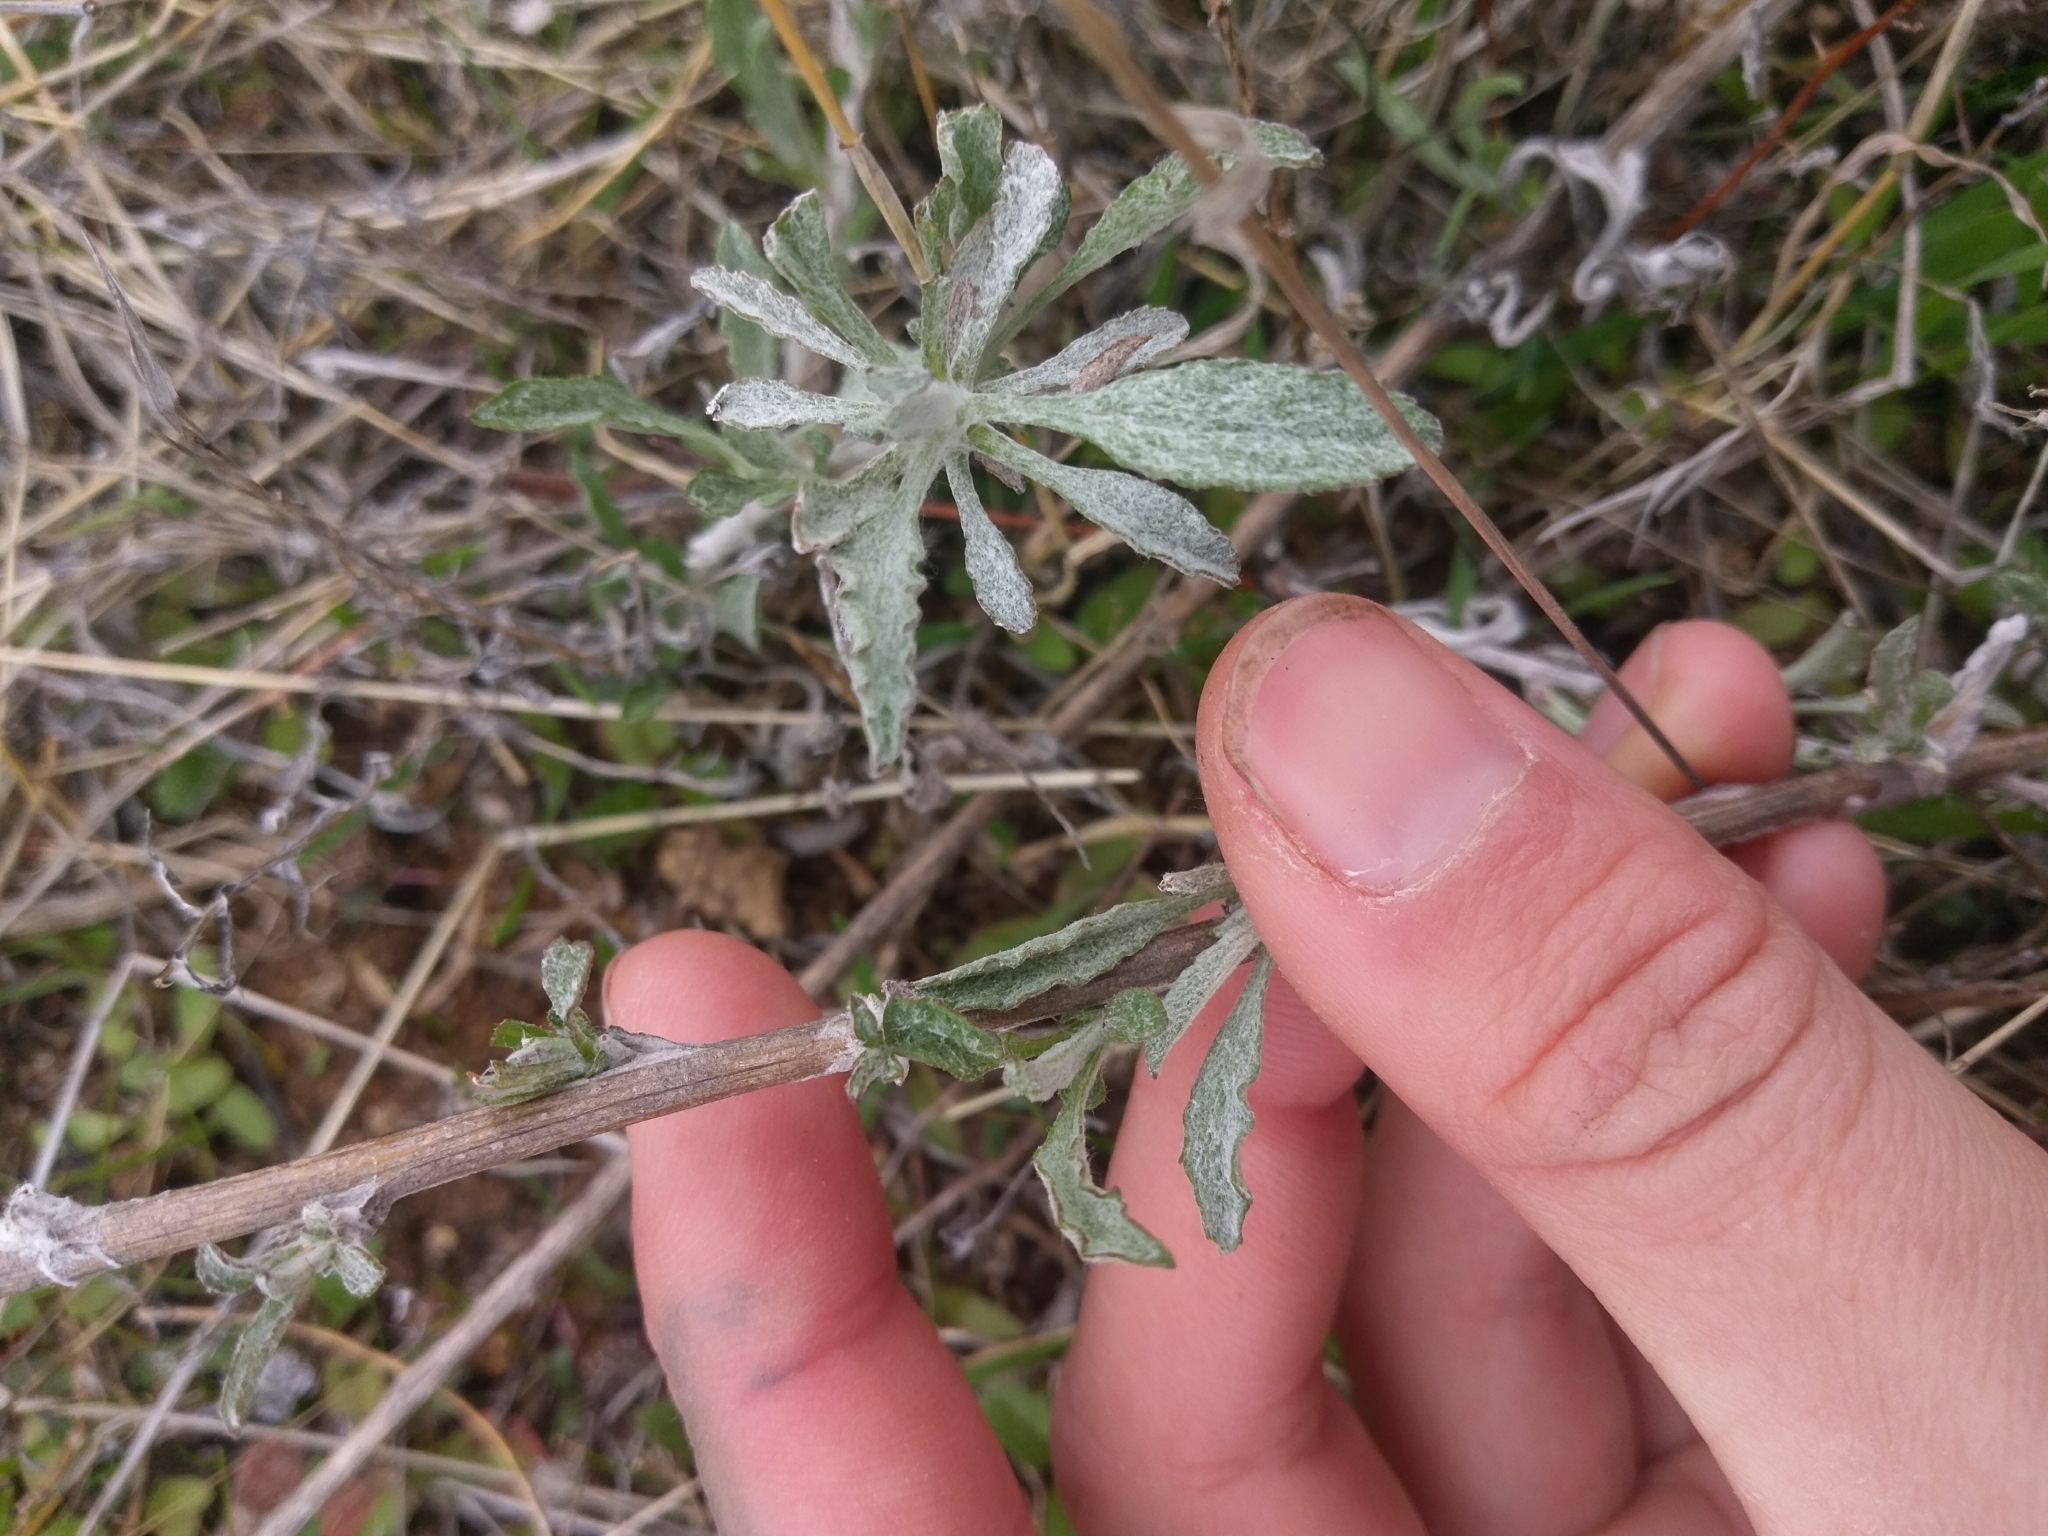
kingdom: Plantae
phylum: Tracheophyta
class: Magnoliopsida
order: Asterales
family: Asteraceae
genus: Corethrogyne
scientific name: Corethrogyne filaginifolia
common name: Sand-aster
